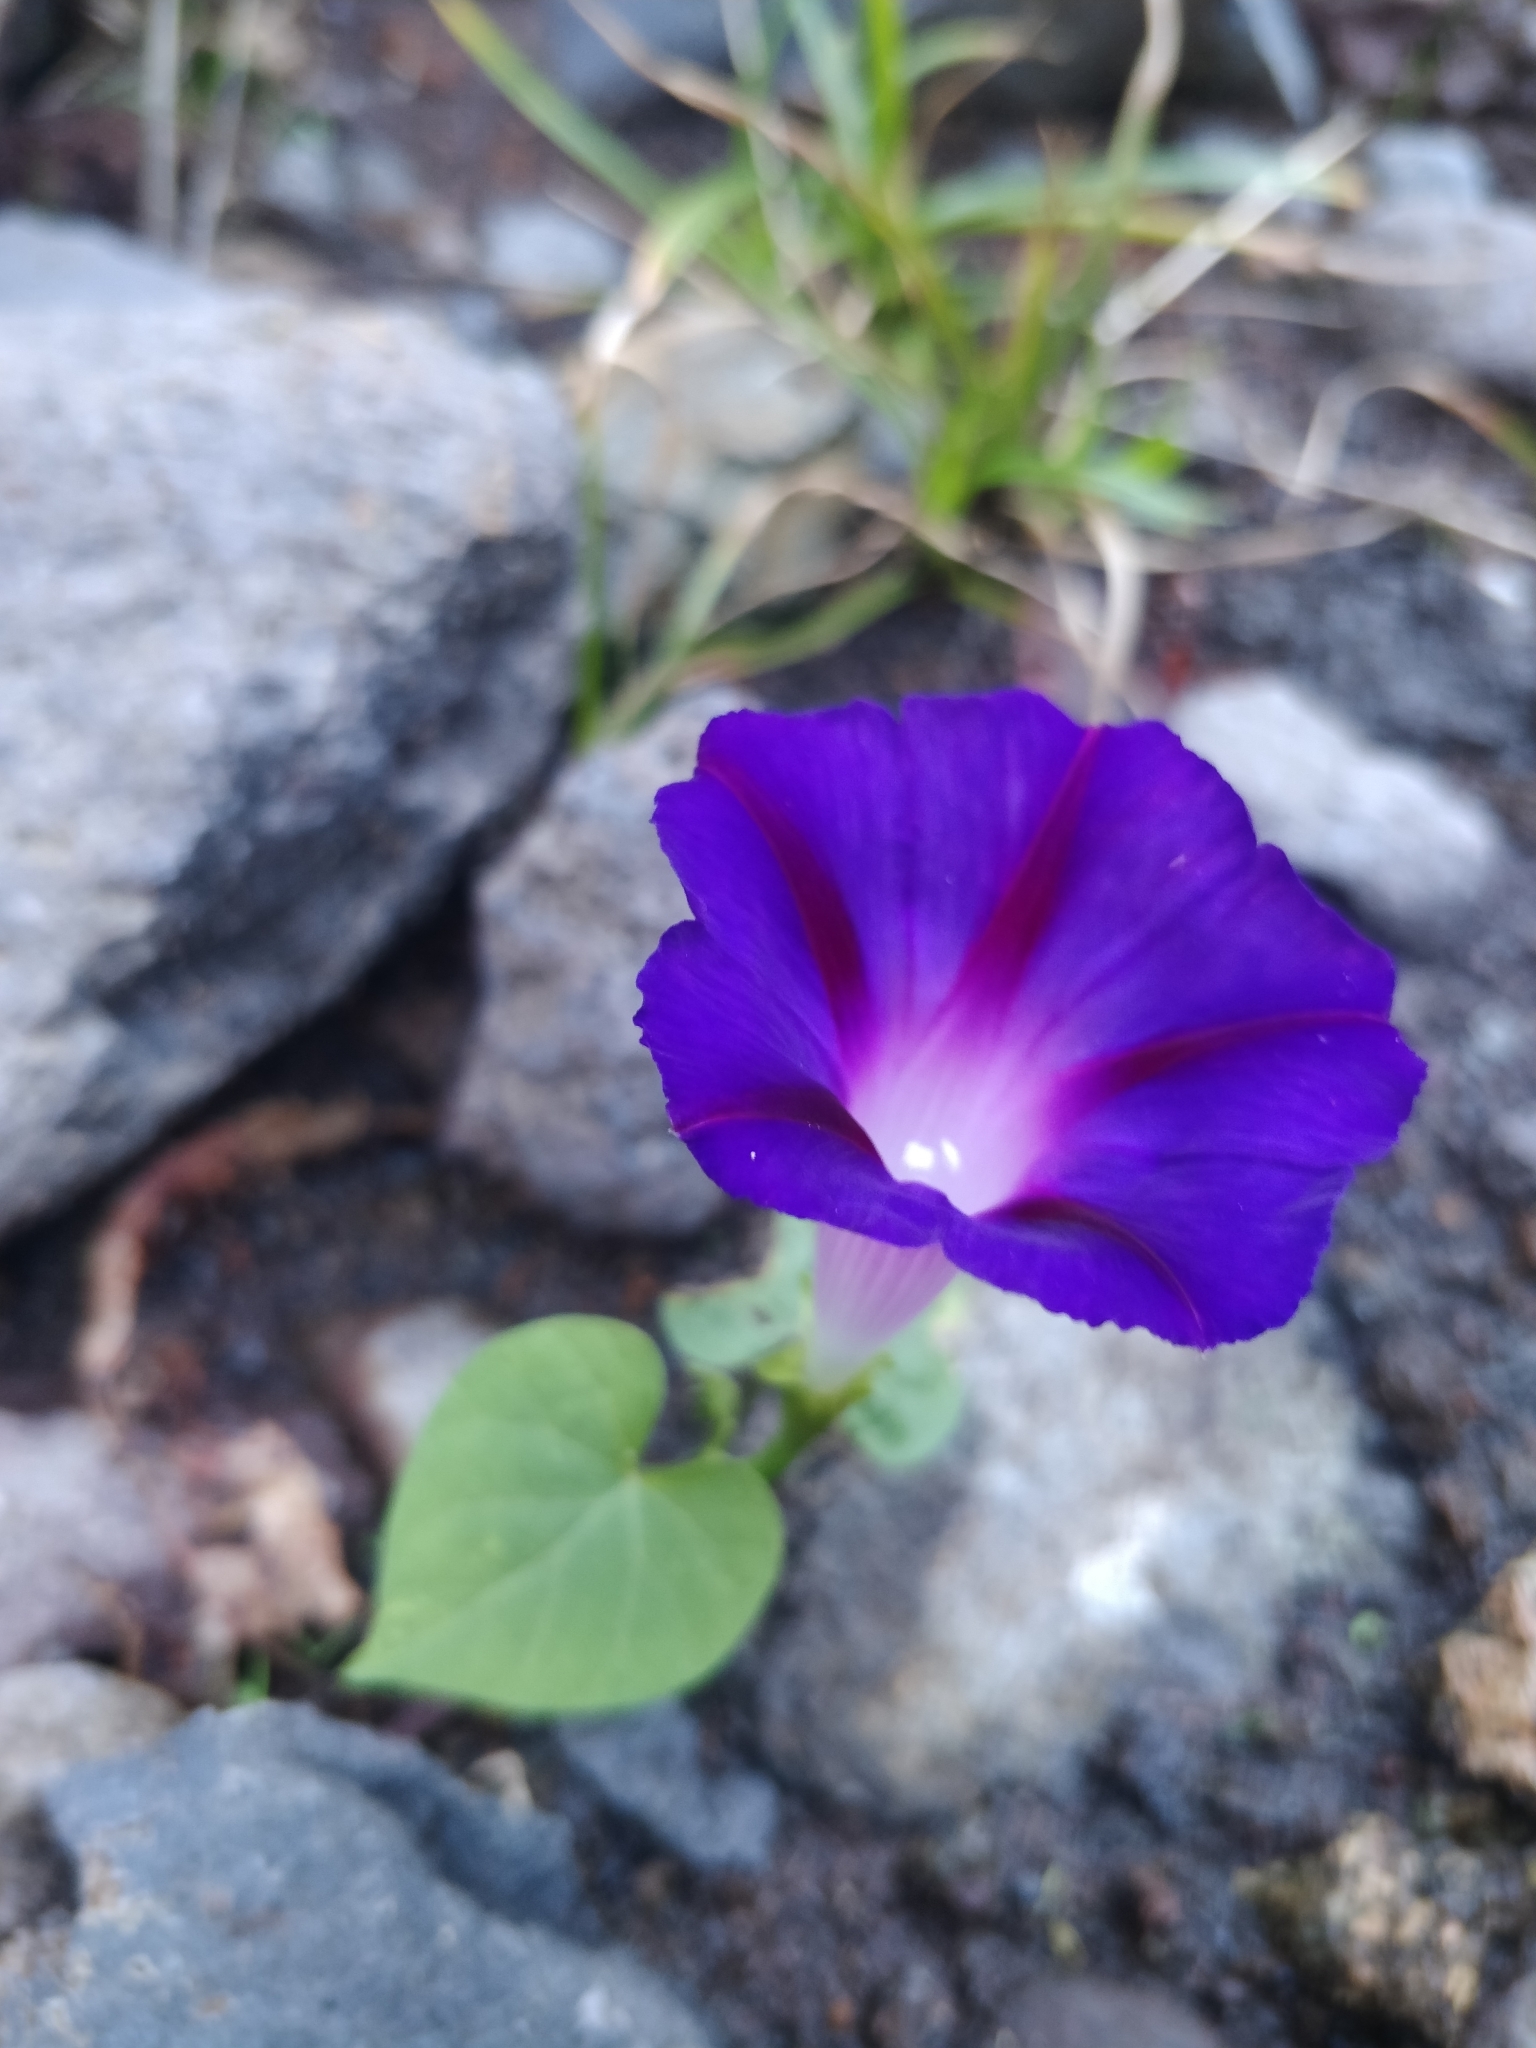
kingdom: Plantae
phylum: Tracheophyta
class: Magnoliopsida
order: Solanales
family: Convolvulaceae
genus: Ipomoea
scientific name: Ipomoea purpurea
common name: Common morning-glory
